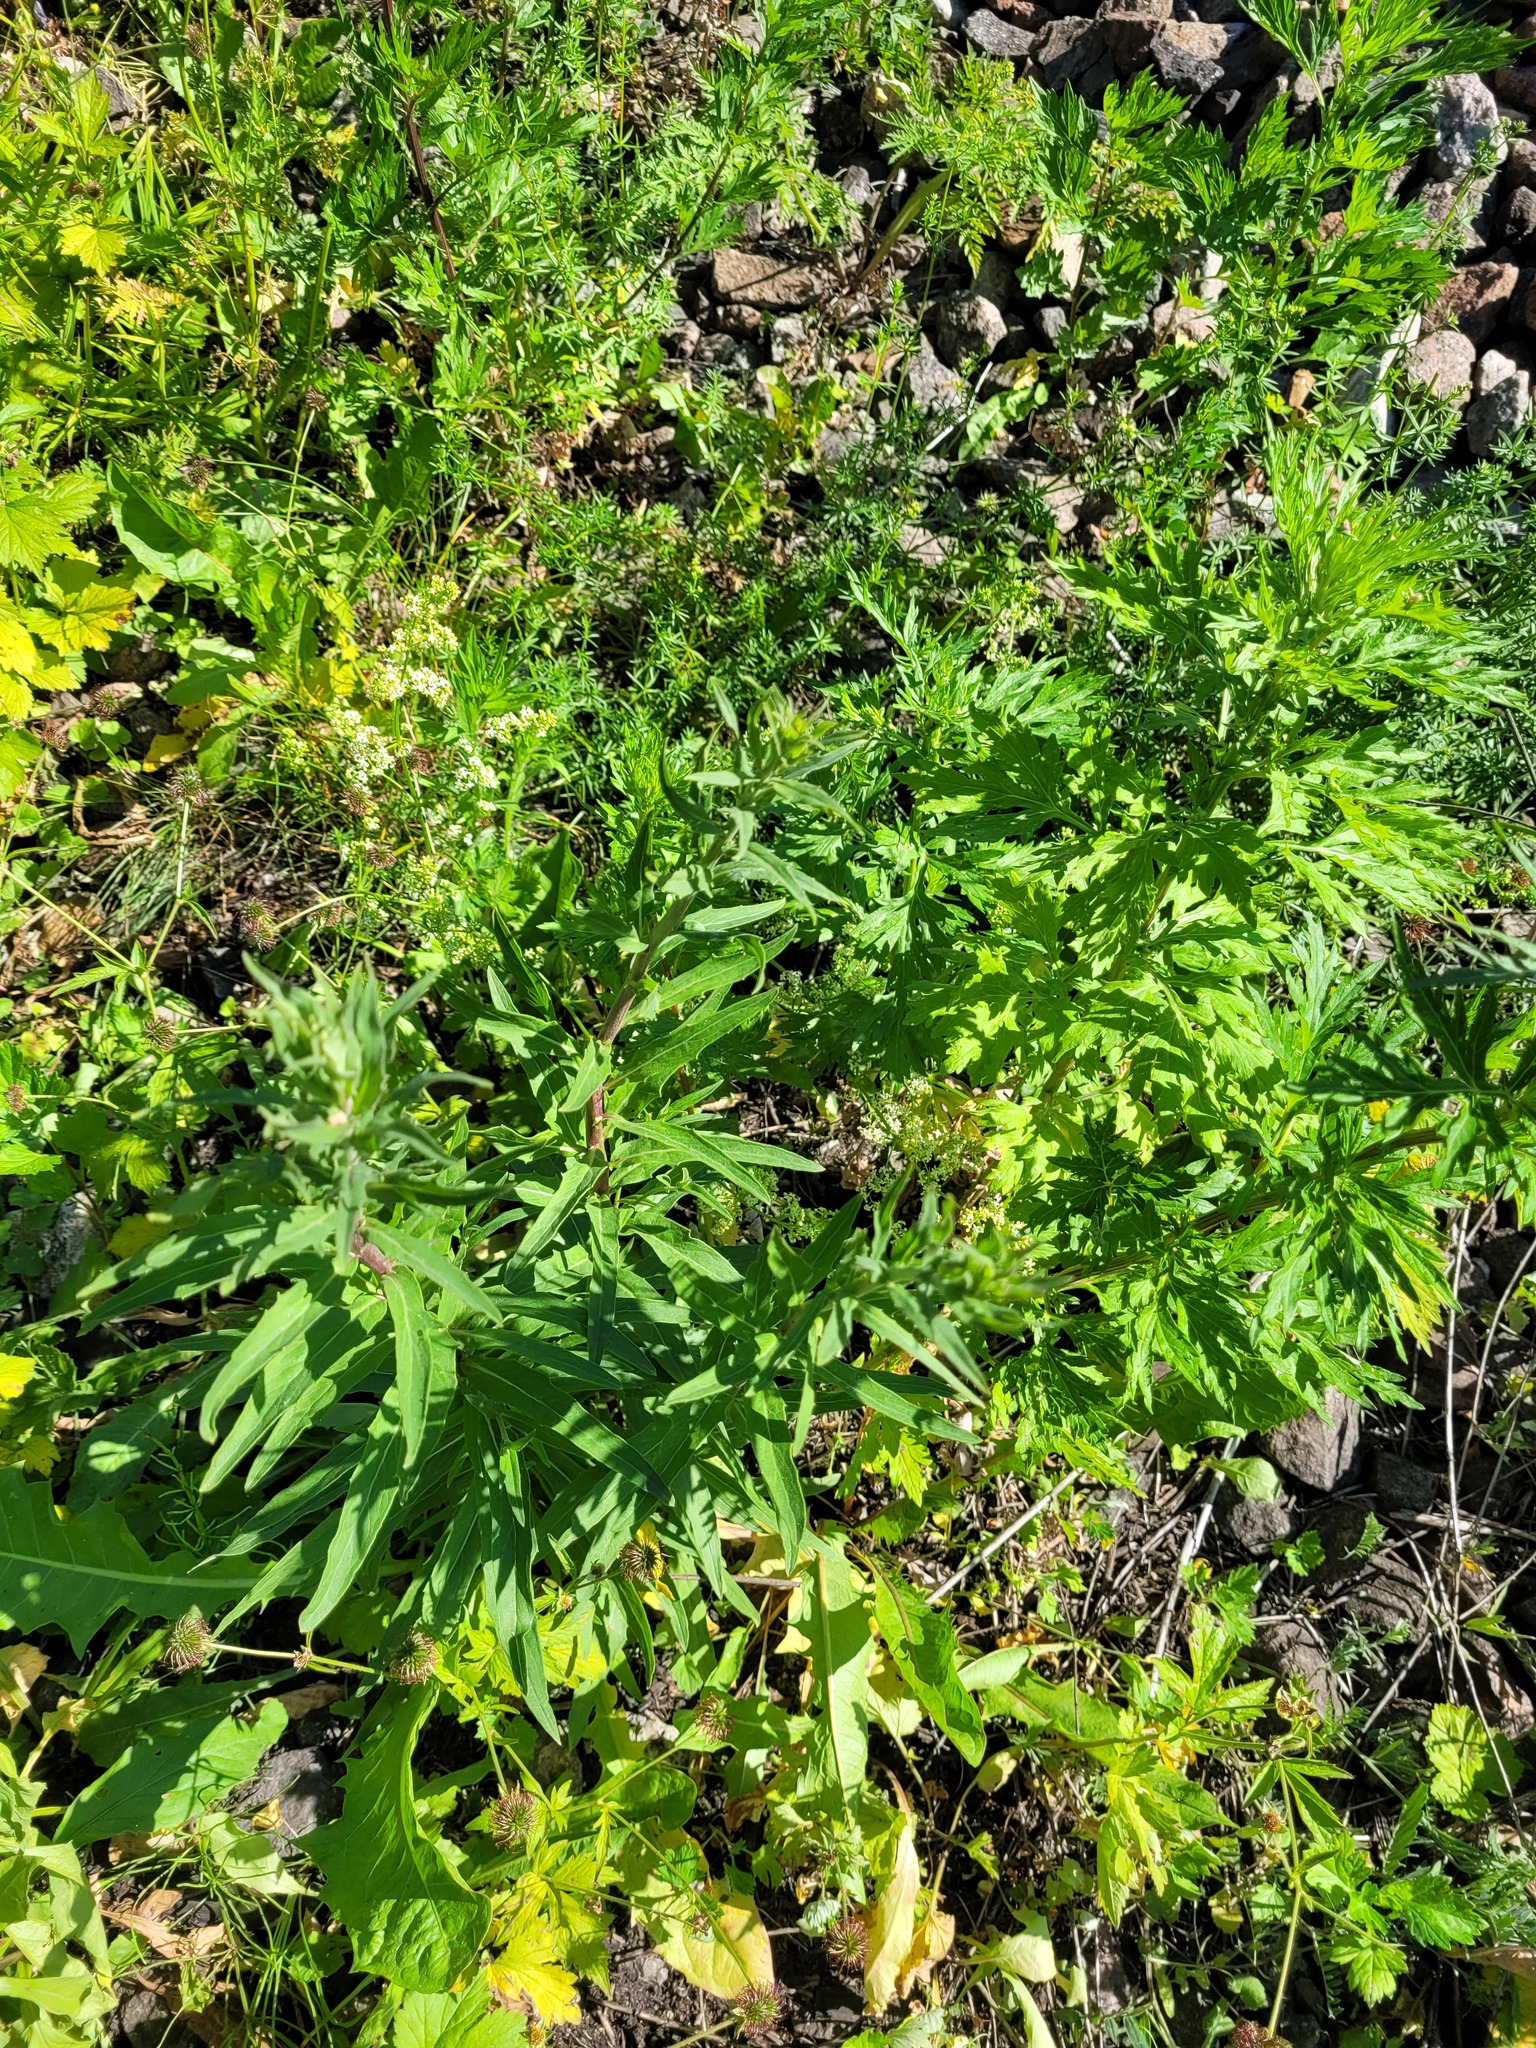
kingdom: Plantae
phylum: Tracheophyta
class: Magnoliopsida
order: Asterales
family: Asteraceae
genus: Hieracium
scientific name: Hieracium umbellatum
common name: Northern hawkweed
